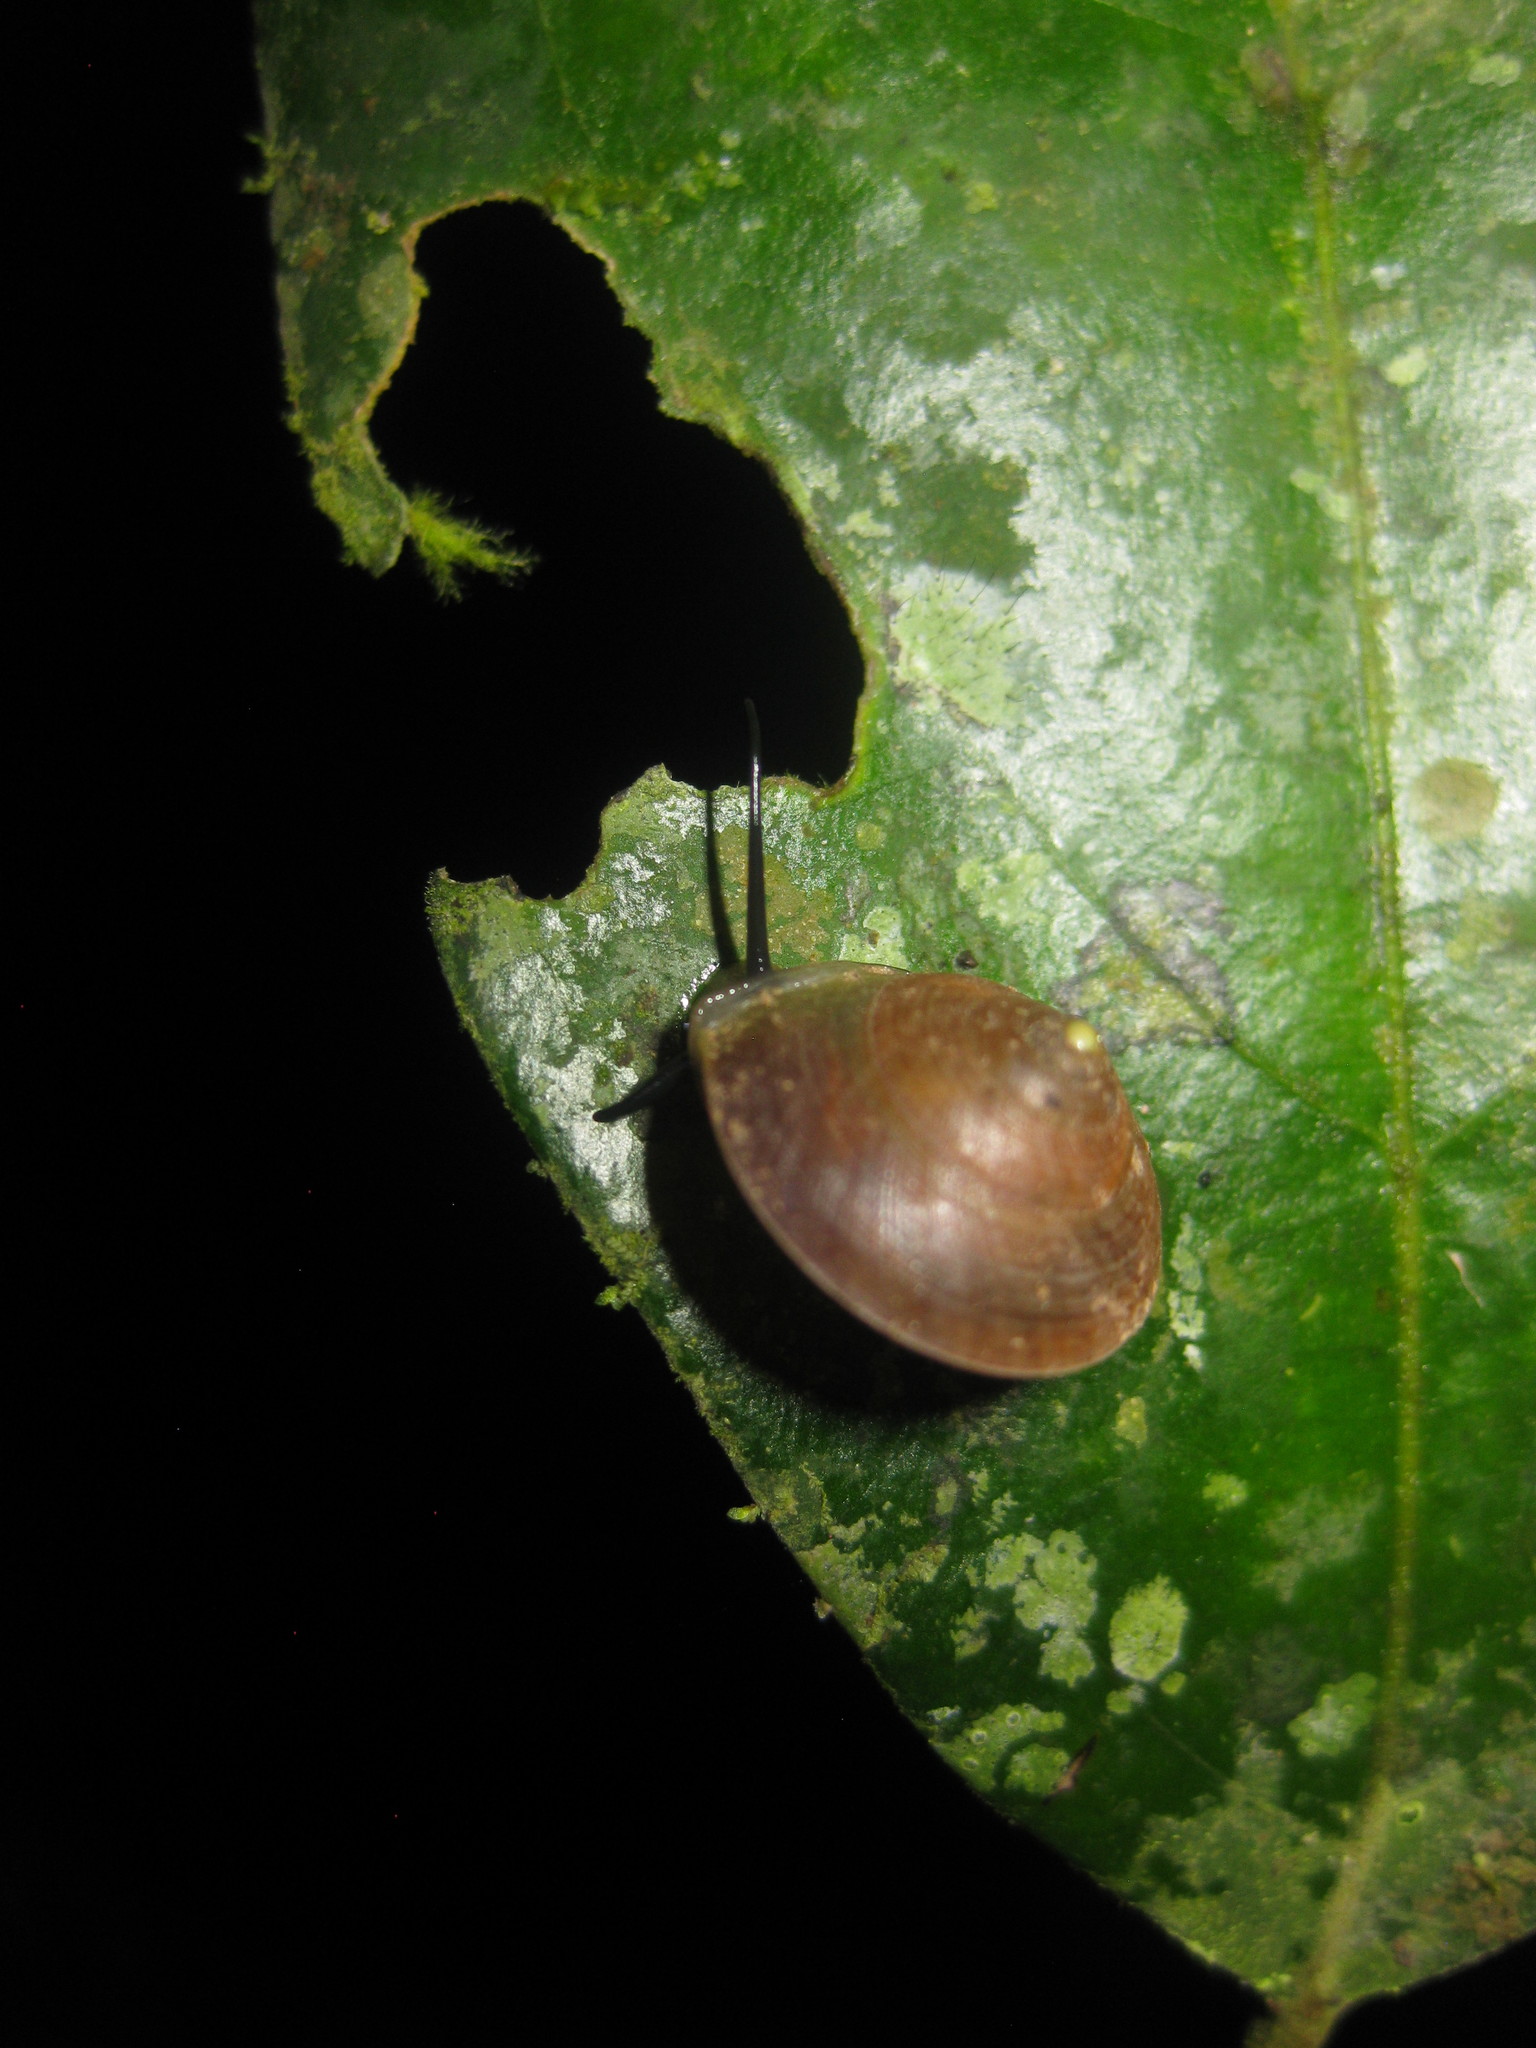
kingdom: Animalia
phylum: Mollusca
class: Gastropoda
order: Cycloneritida
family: Helicinidae
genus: Helicina
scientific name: Helicina
